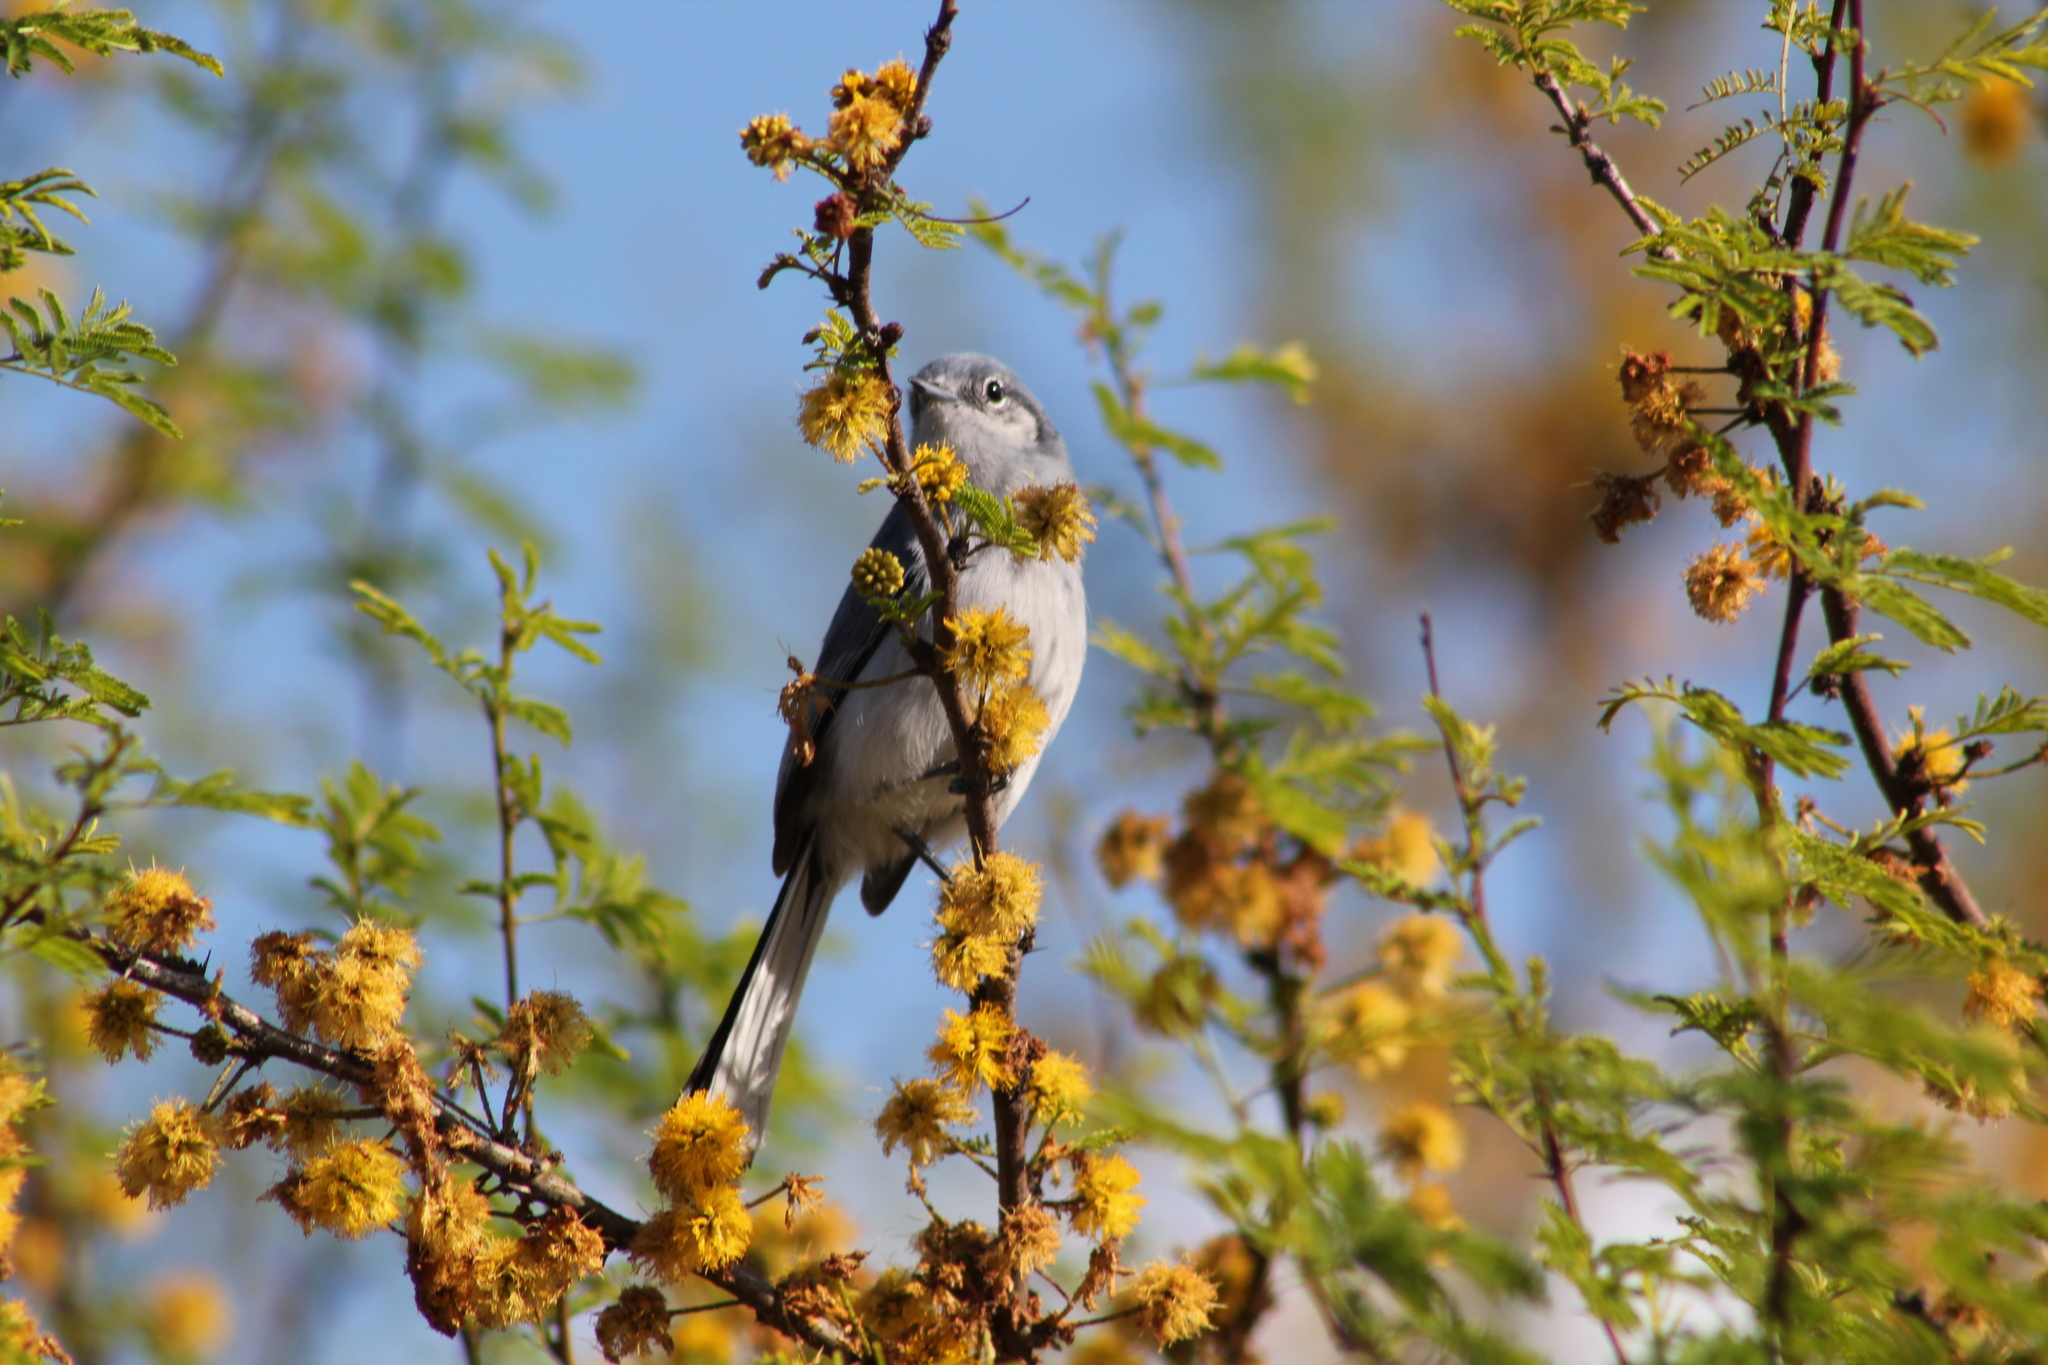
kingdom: Animalia
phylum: Chordata
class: Aves
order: Passeriformes
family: Polioptilidae
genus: Polioptila
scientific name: Polioptila dumicola
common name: Masked gnatcatcher
